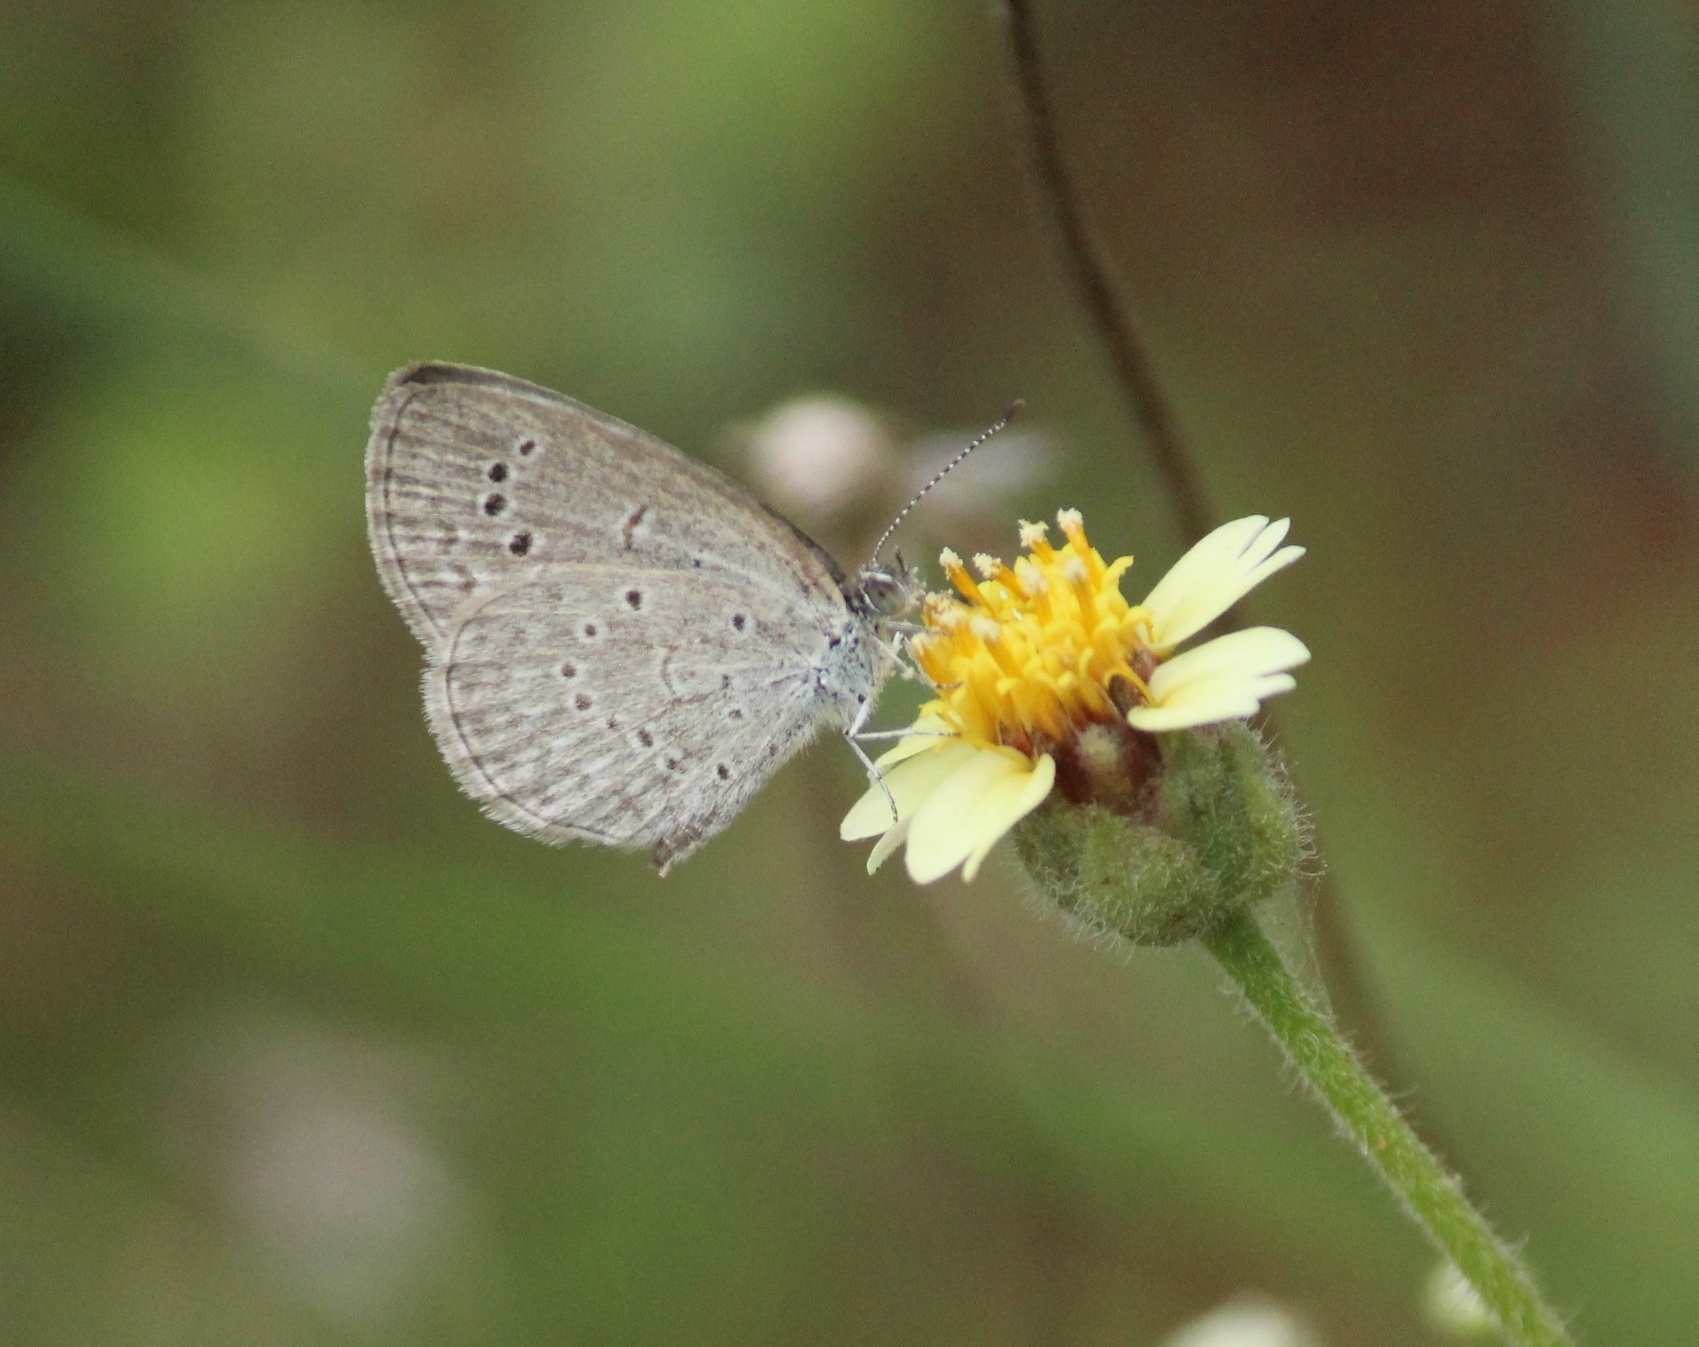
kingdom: Animalia
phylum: Arthropoda
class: Insecta
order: Lepidoptera
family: Lycaenidae
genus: Pseudozizeeria
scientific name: Pseudozizeeria maha
